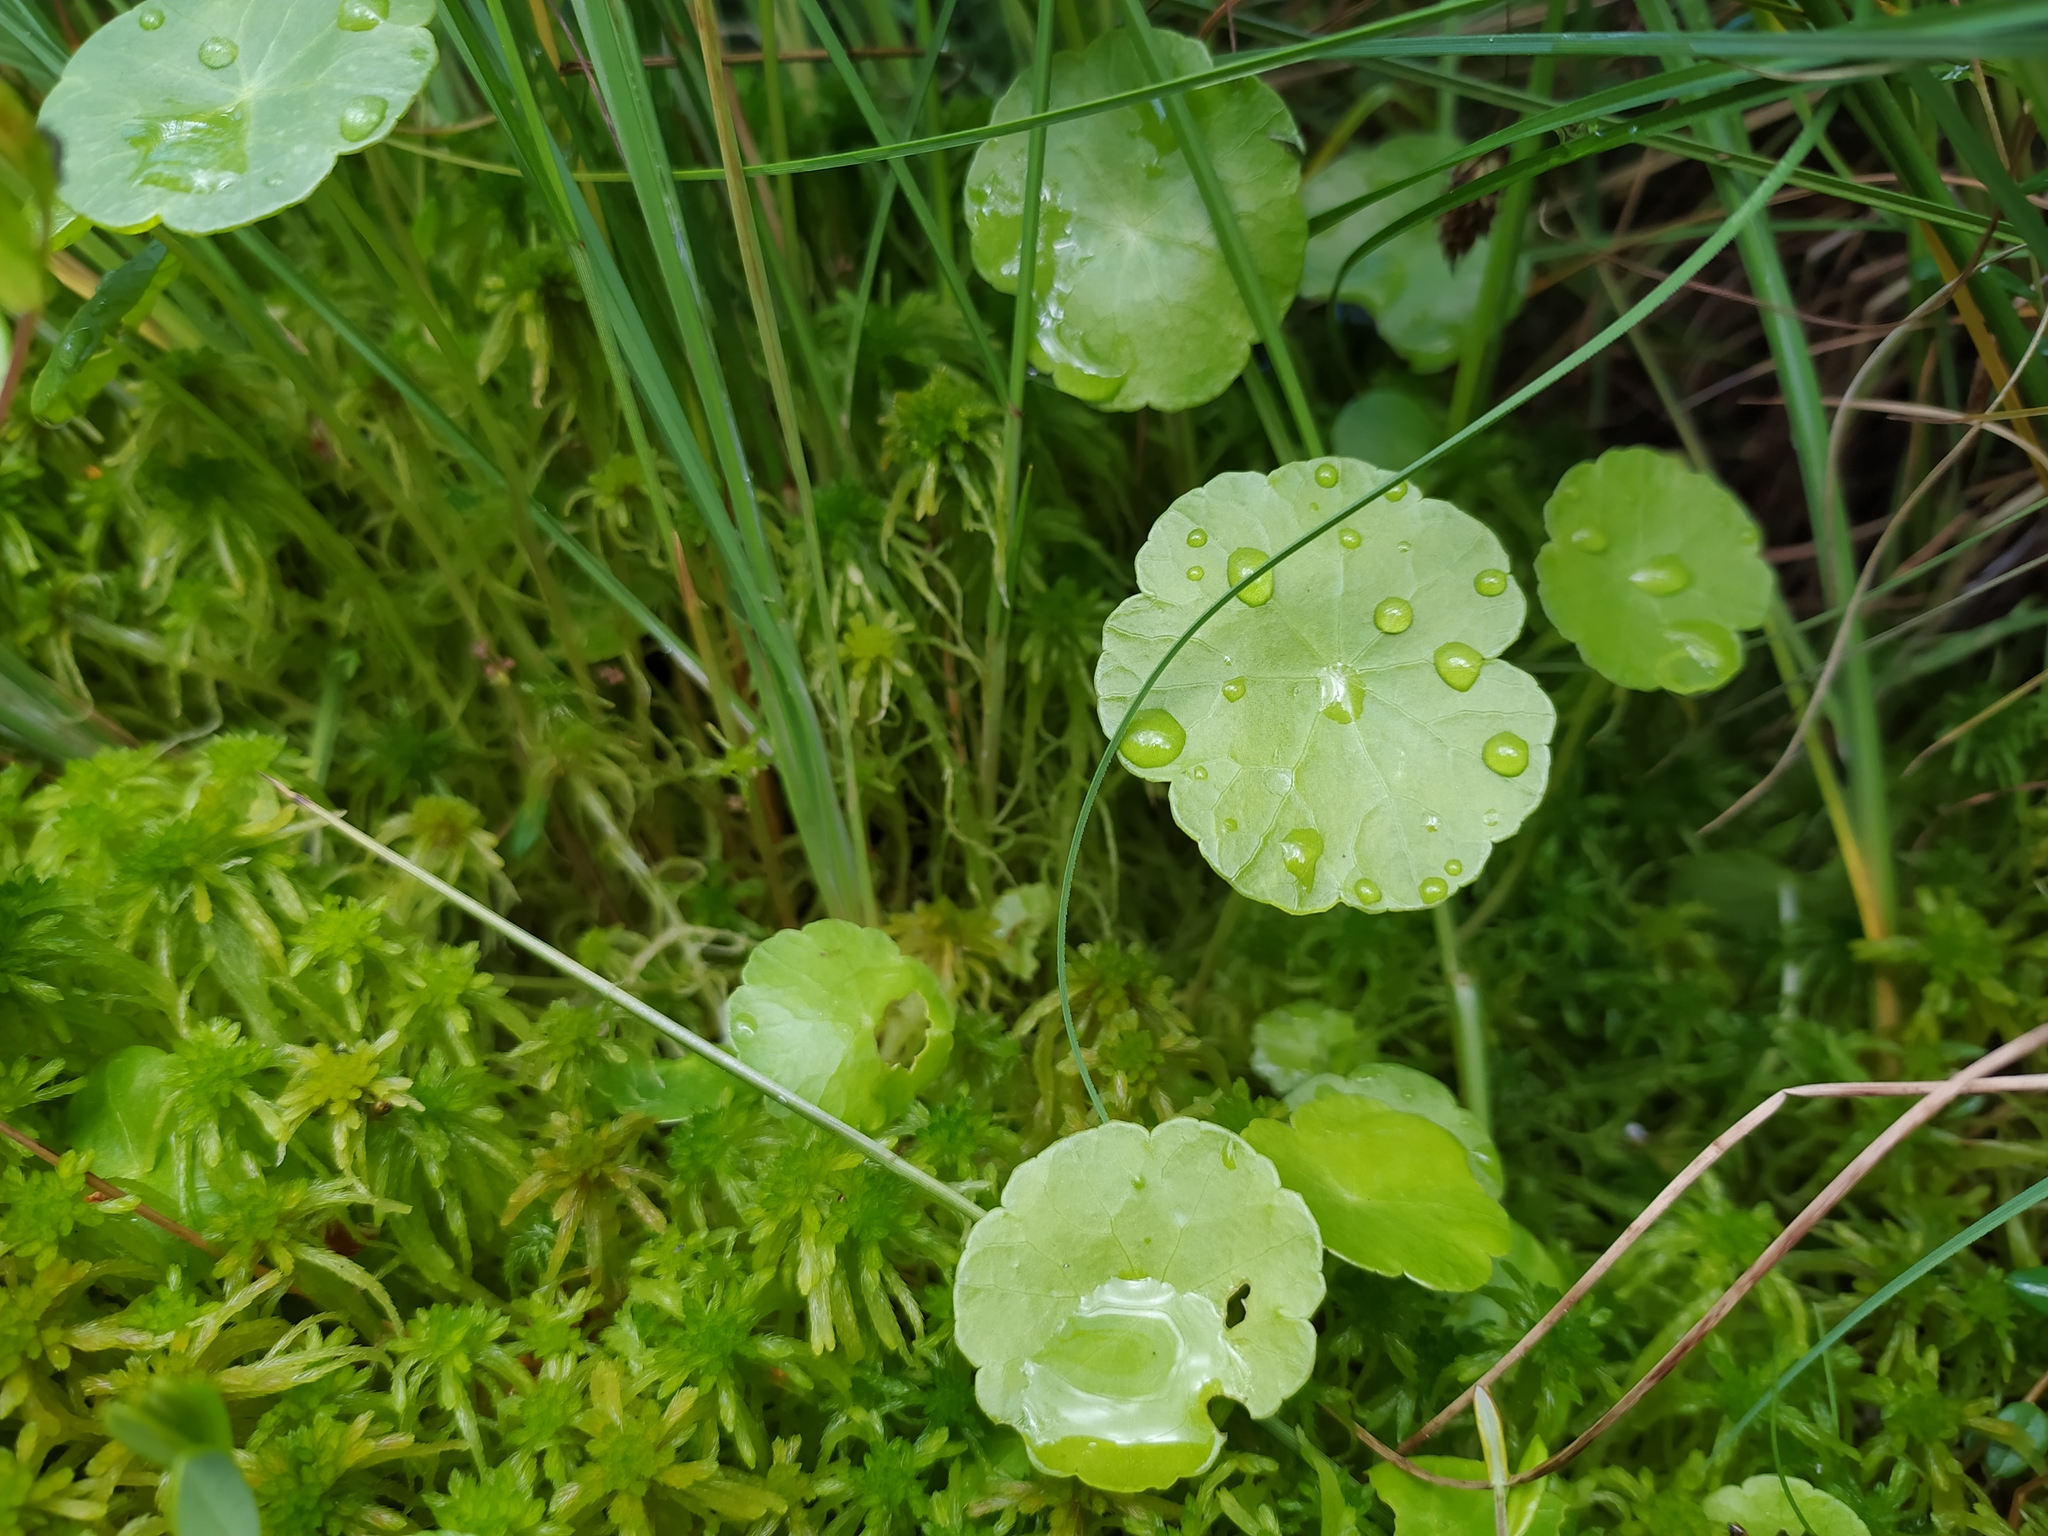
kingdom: Plantae
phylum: Tracheophyta
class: Magnoliopsida
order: Apiales
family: Araliaceae
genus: Hydrocotyle
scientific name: Hydrocotyle vulgaris
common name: Marsh pennywort
